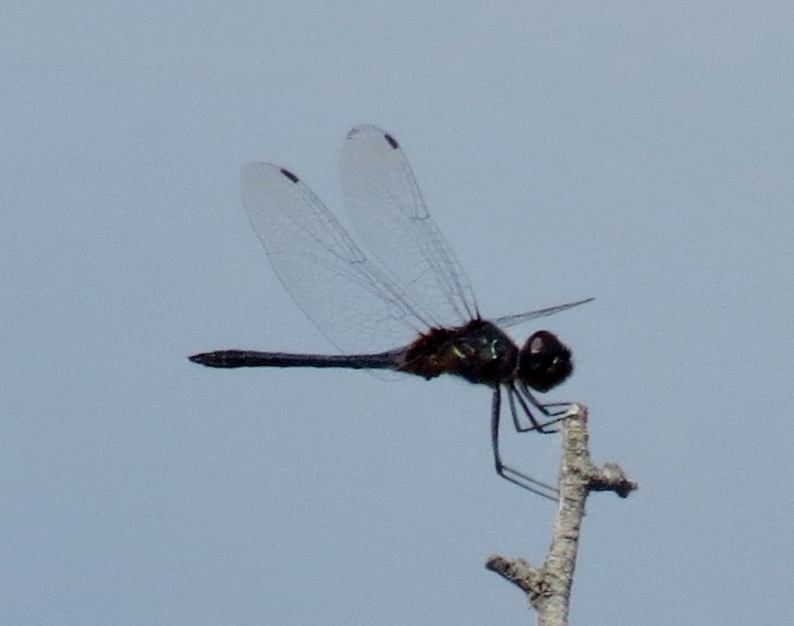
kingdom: Animalia
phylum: Arthropoda
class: Insecta
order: Odonata
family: Libellulidae
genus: Idiataphe
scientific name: Idiataphe cubensis
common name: Metallic pennant
